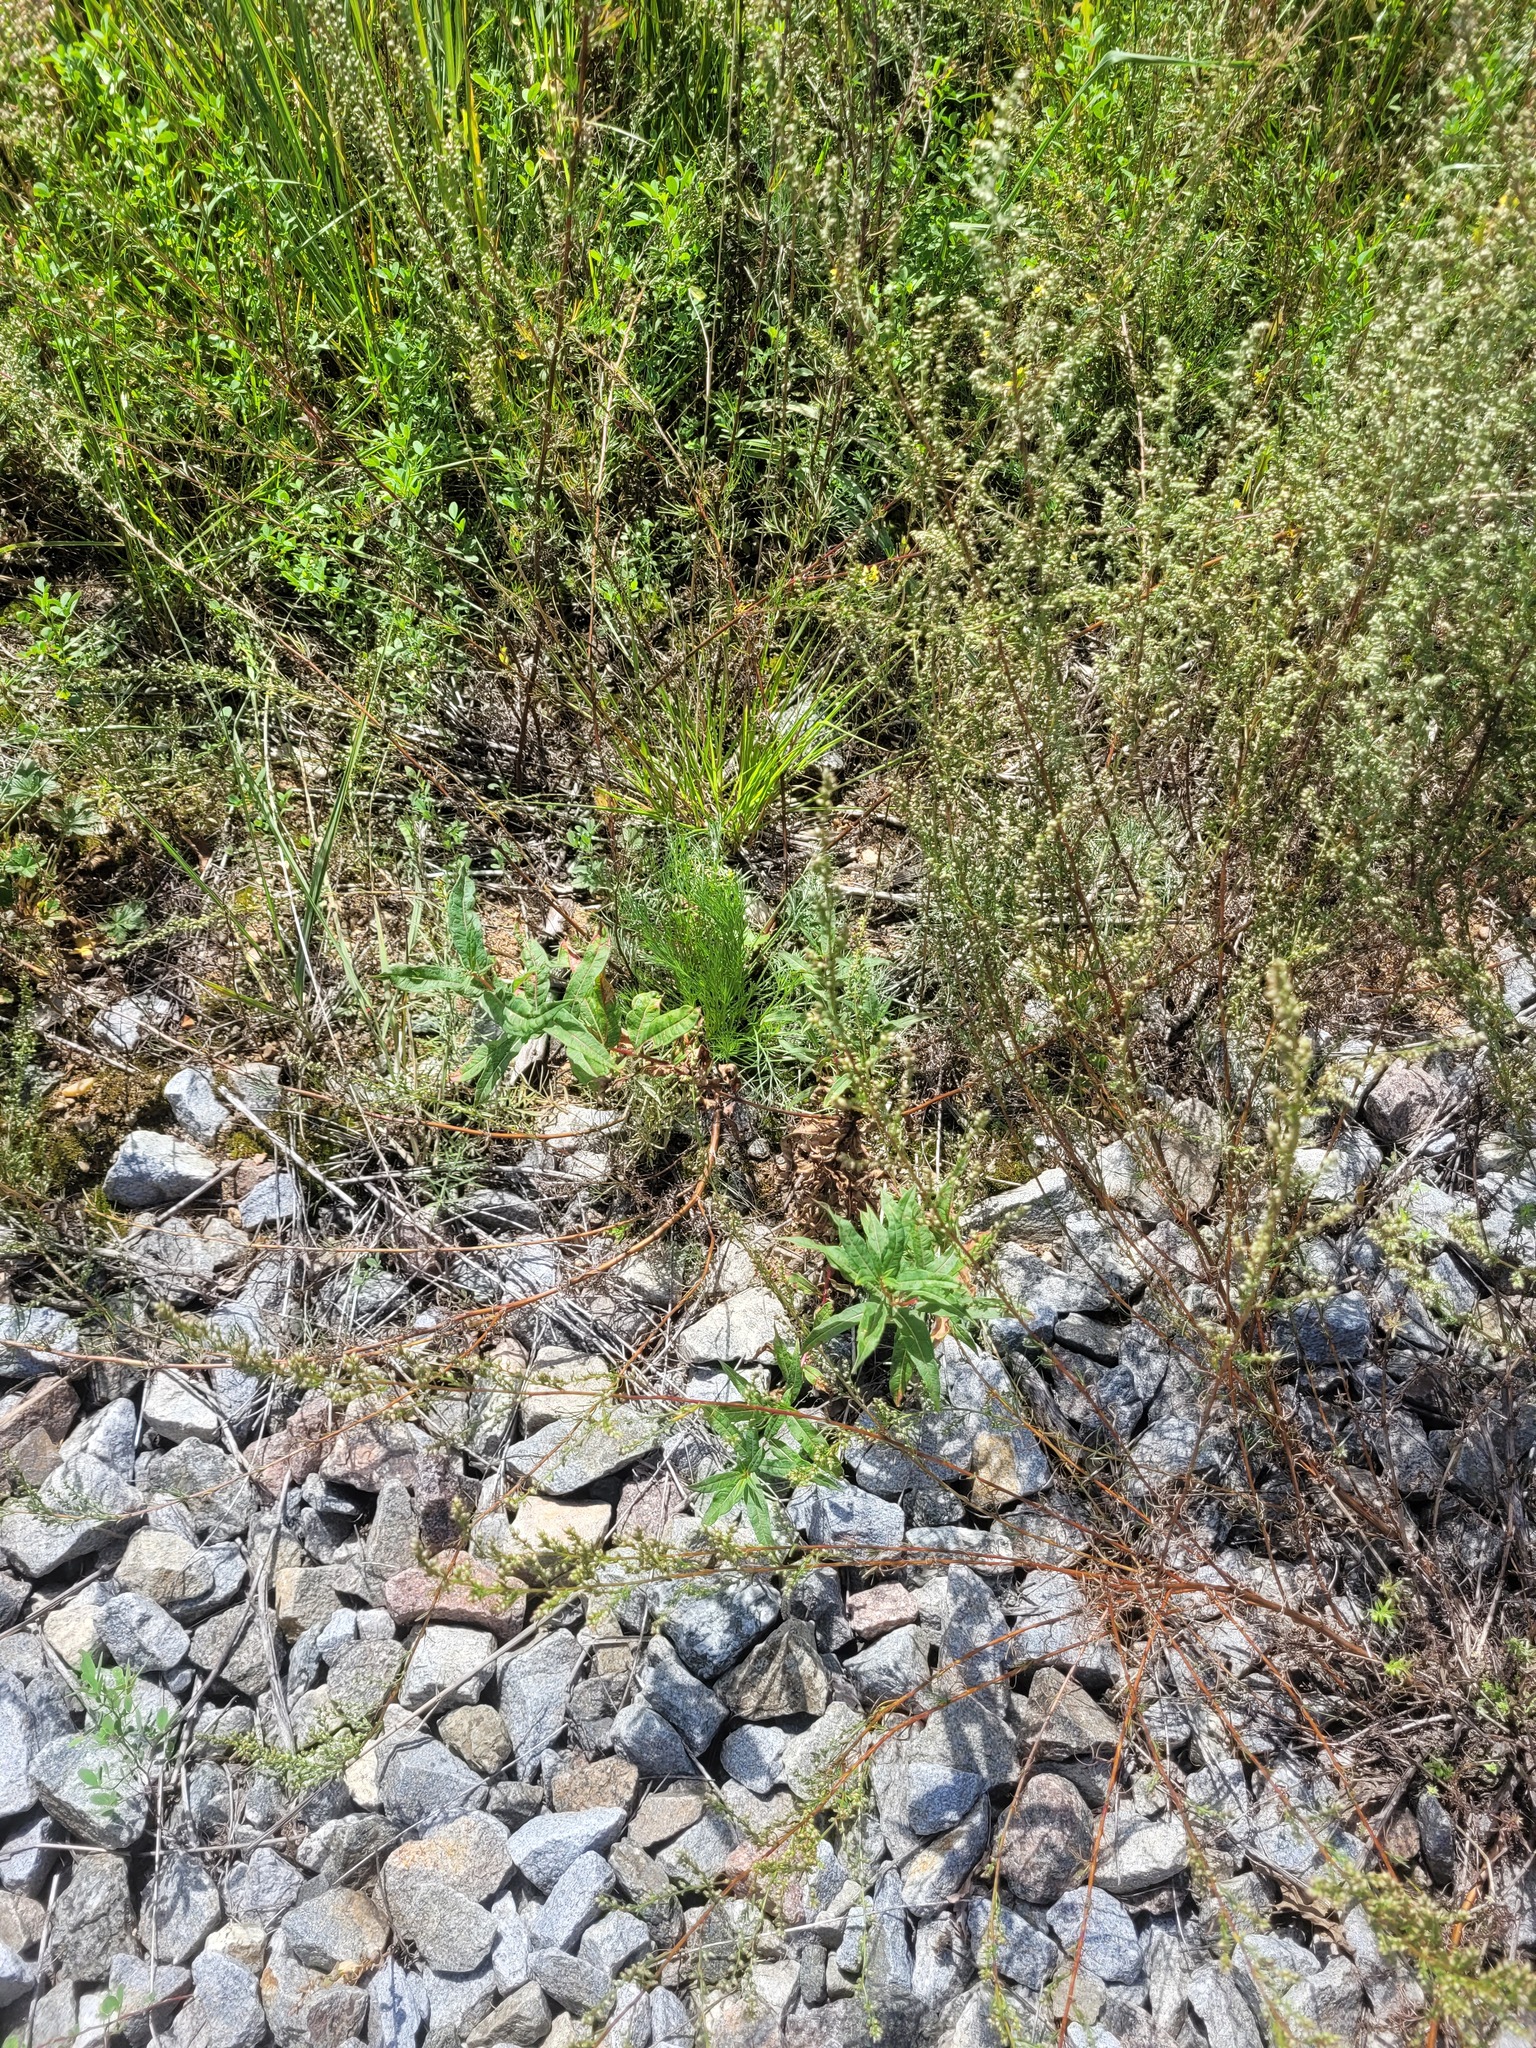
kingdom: Plantae
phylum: Tracheophyta
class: Magnoliopsida
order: Myrtales
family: Onagraceae
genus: Chamaenerion
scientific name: Chamaenerion angustifolium
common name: Fireweed
